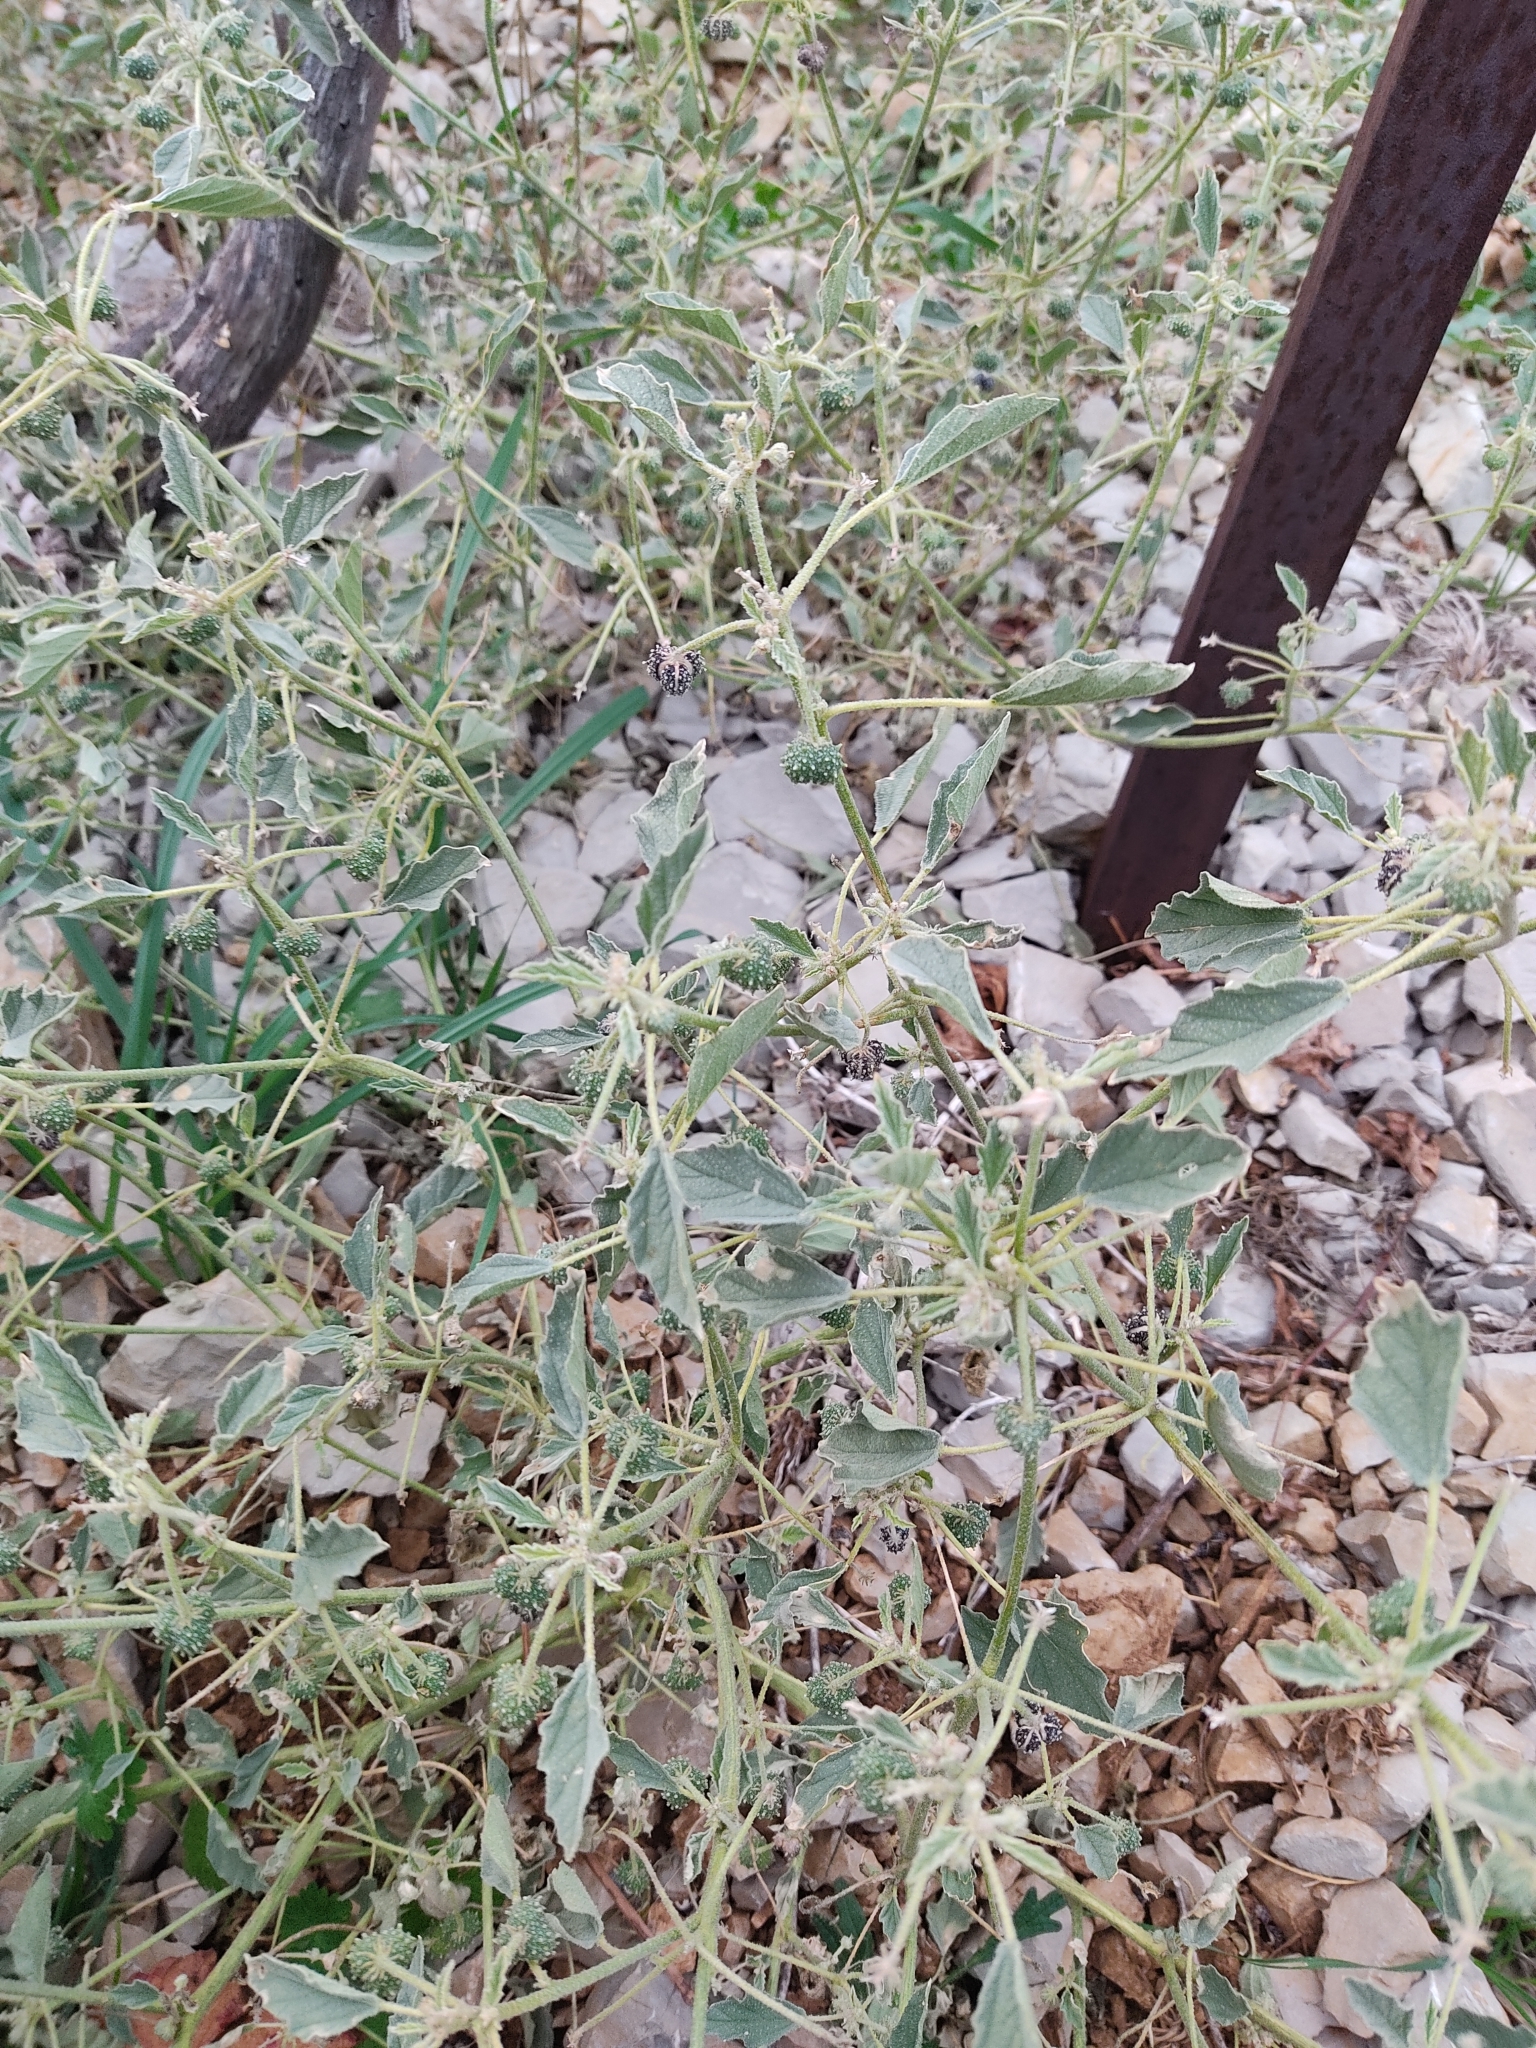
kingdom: Plantae
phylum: Tracheophyta
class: Magnoliopsida
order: Malpighiales
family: Euphorbiaceae
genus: Chrozophora
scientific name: Chrozophora tinctoria
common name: Dyer's litmus
